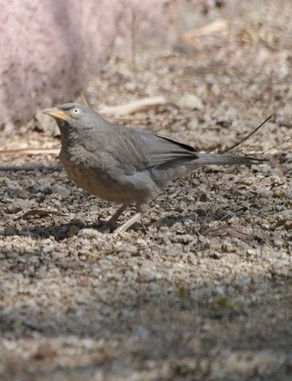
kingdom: Animalia
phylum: Chordata
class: Aves
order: Passeriformes
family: Leiothrichidae
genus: Turdoides
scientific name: Turdoides striata
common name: Jungle babbler
